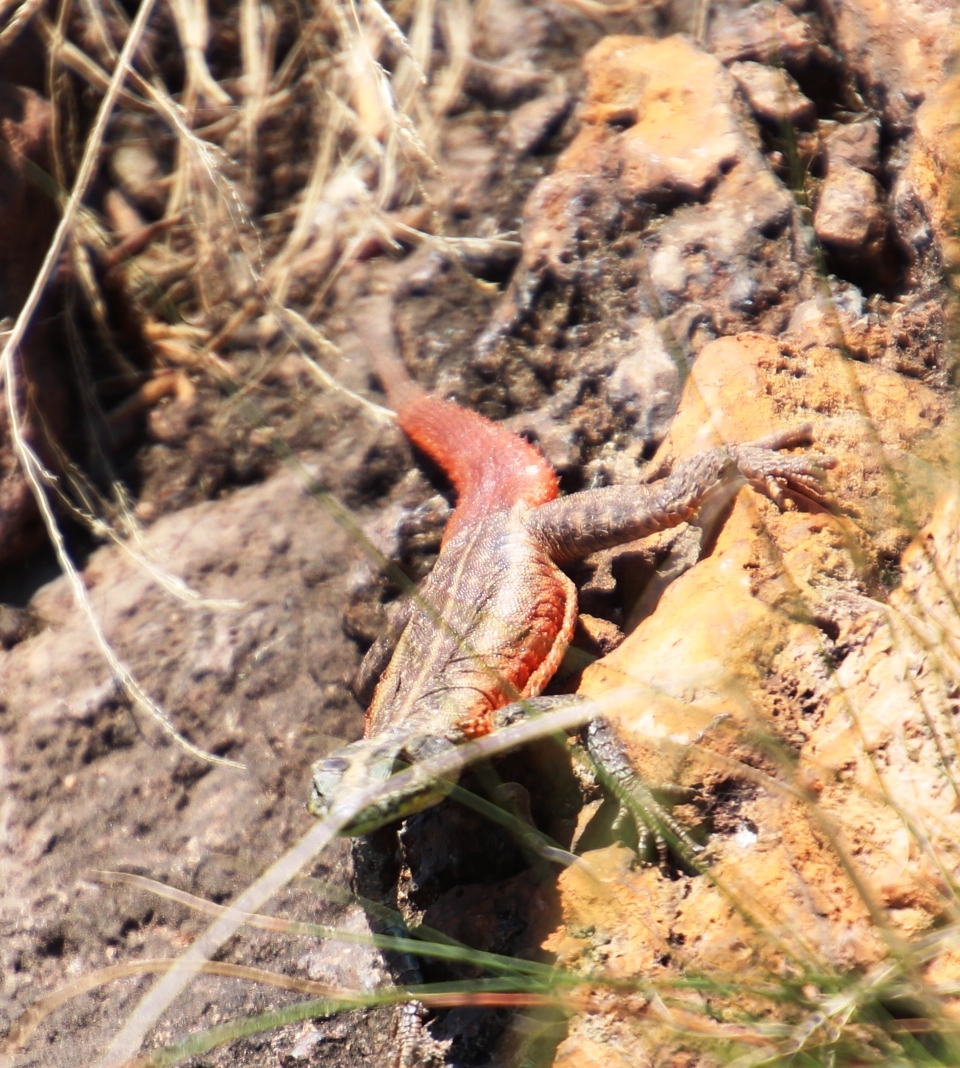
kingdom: Animalia
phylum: Chordata
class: Squamata
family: Cordylidae
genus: Platysaurus
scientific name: Platysaurus lebomboensis
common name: Lebombo flat lizard
